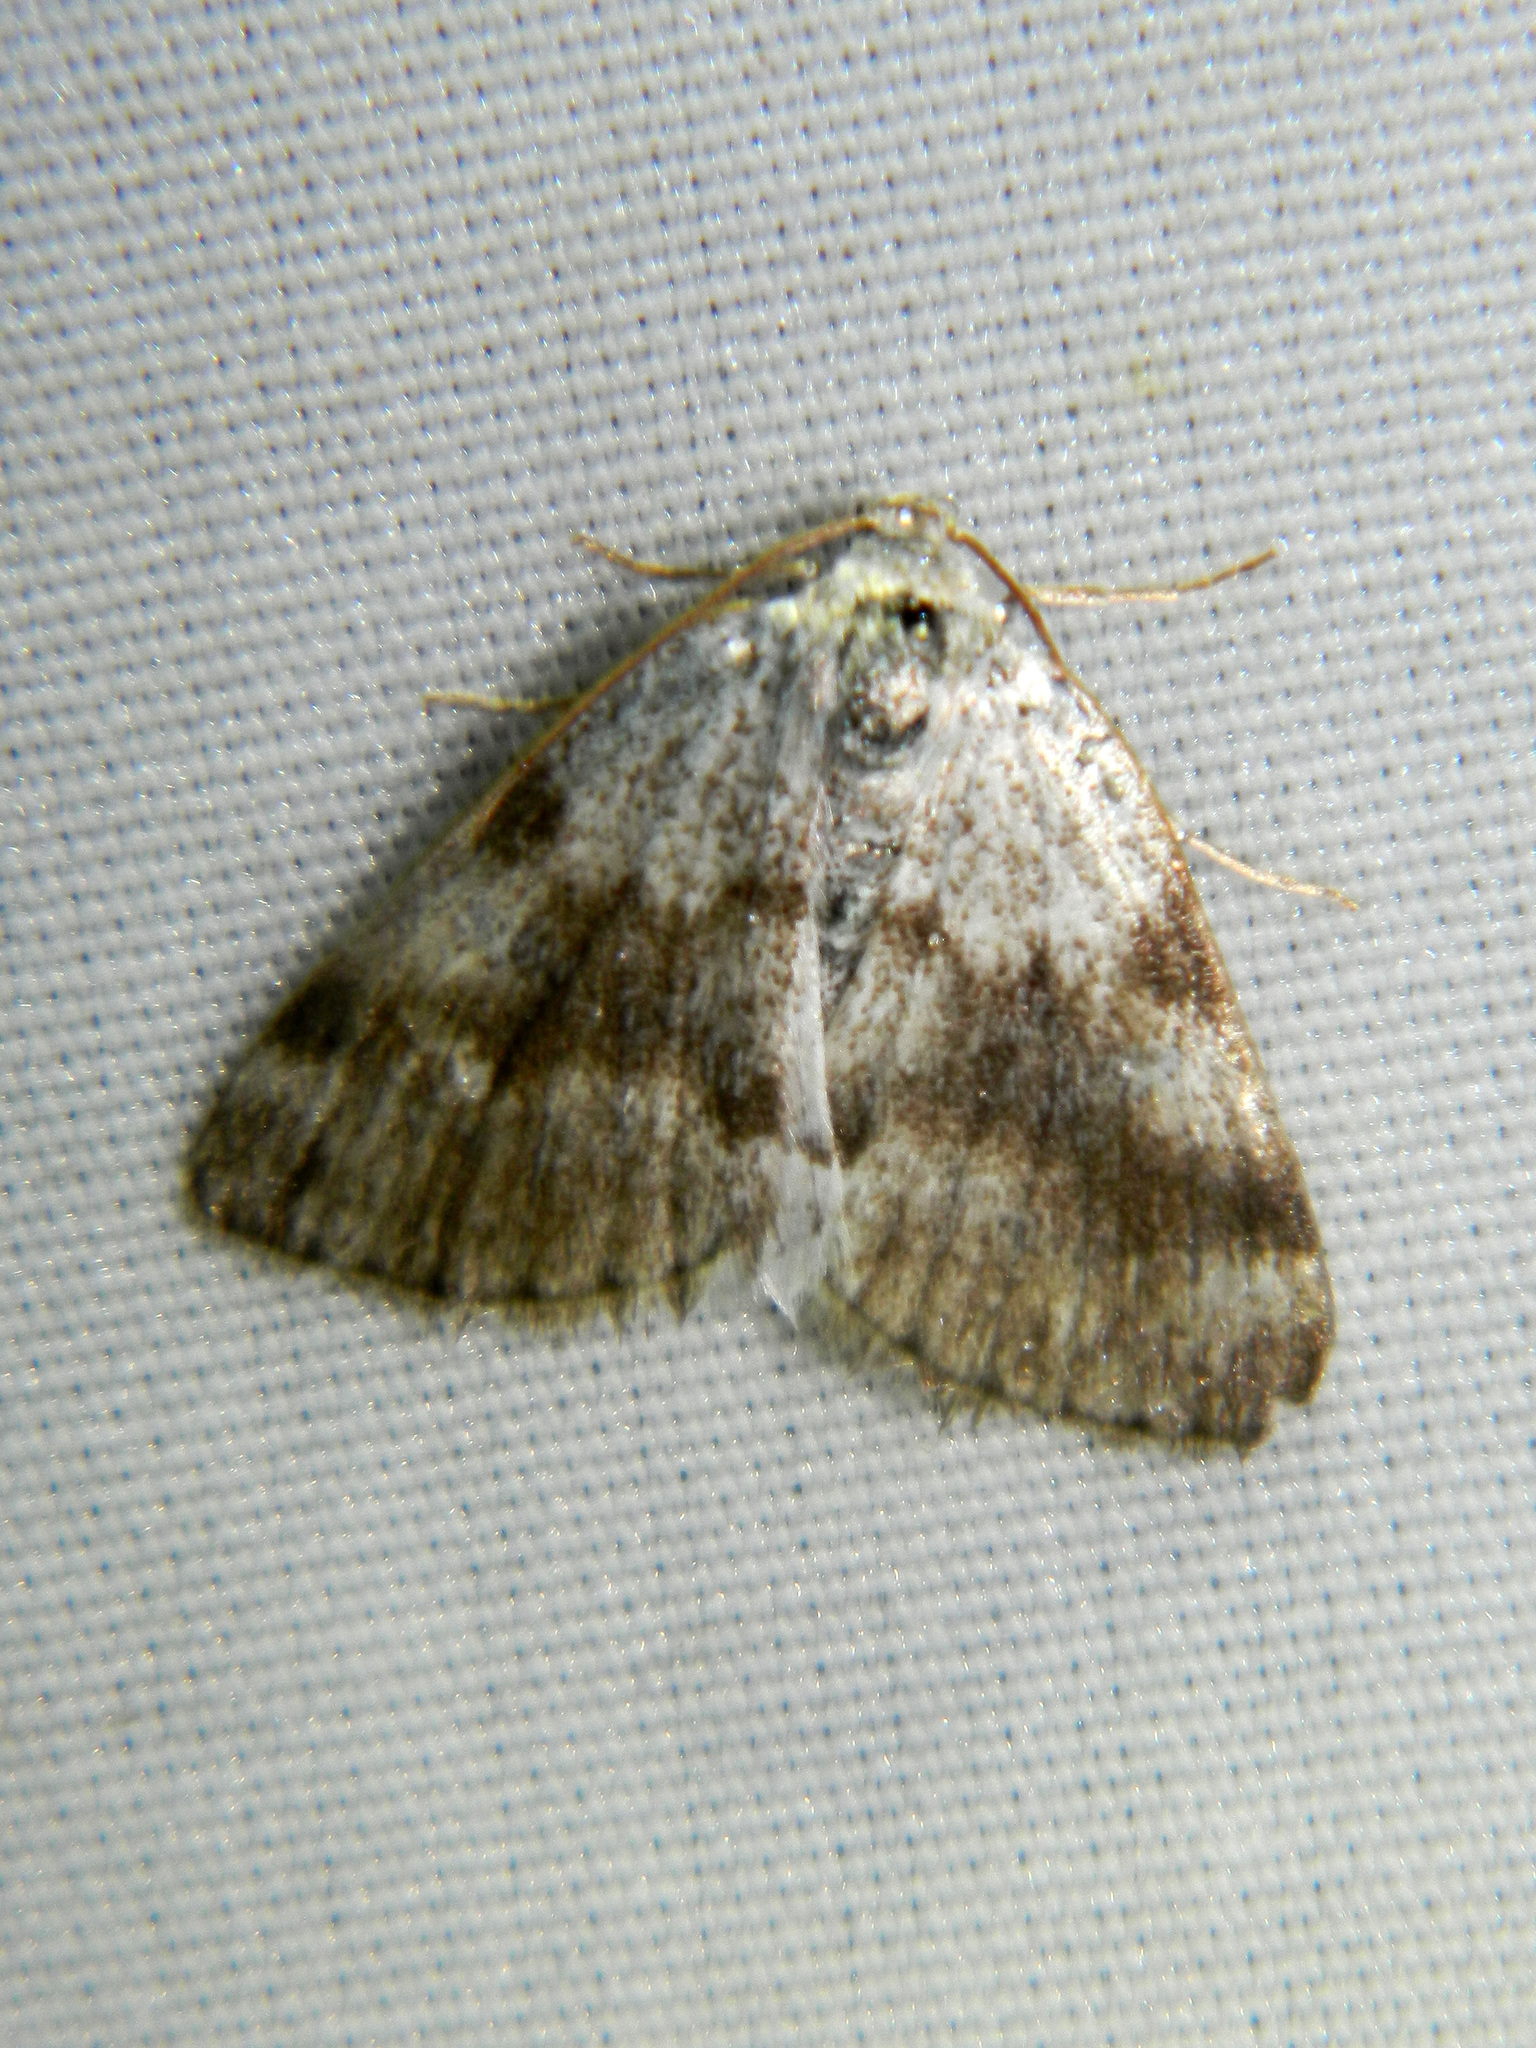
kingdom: Animalia
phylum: Arthropoda
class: Insecta
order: Lepidoptera
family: Geometridae
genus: Lomographa
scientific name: Lomographa semiclarata
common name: Bluish spring moth
